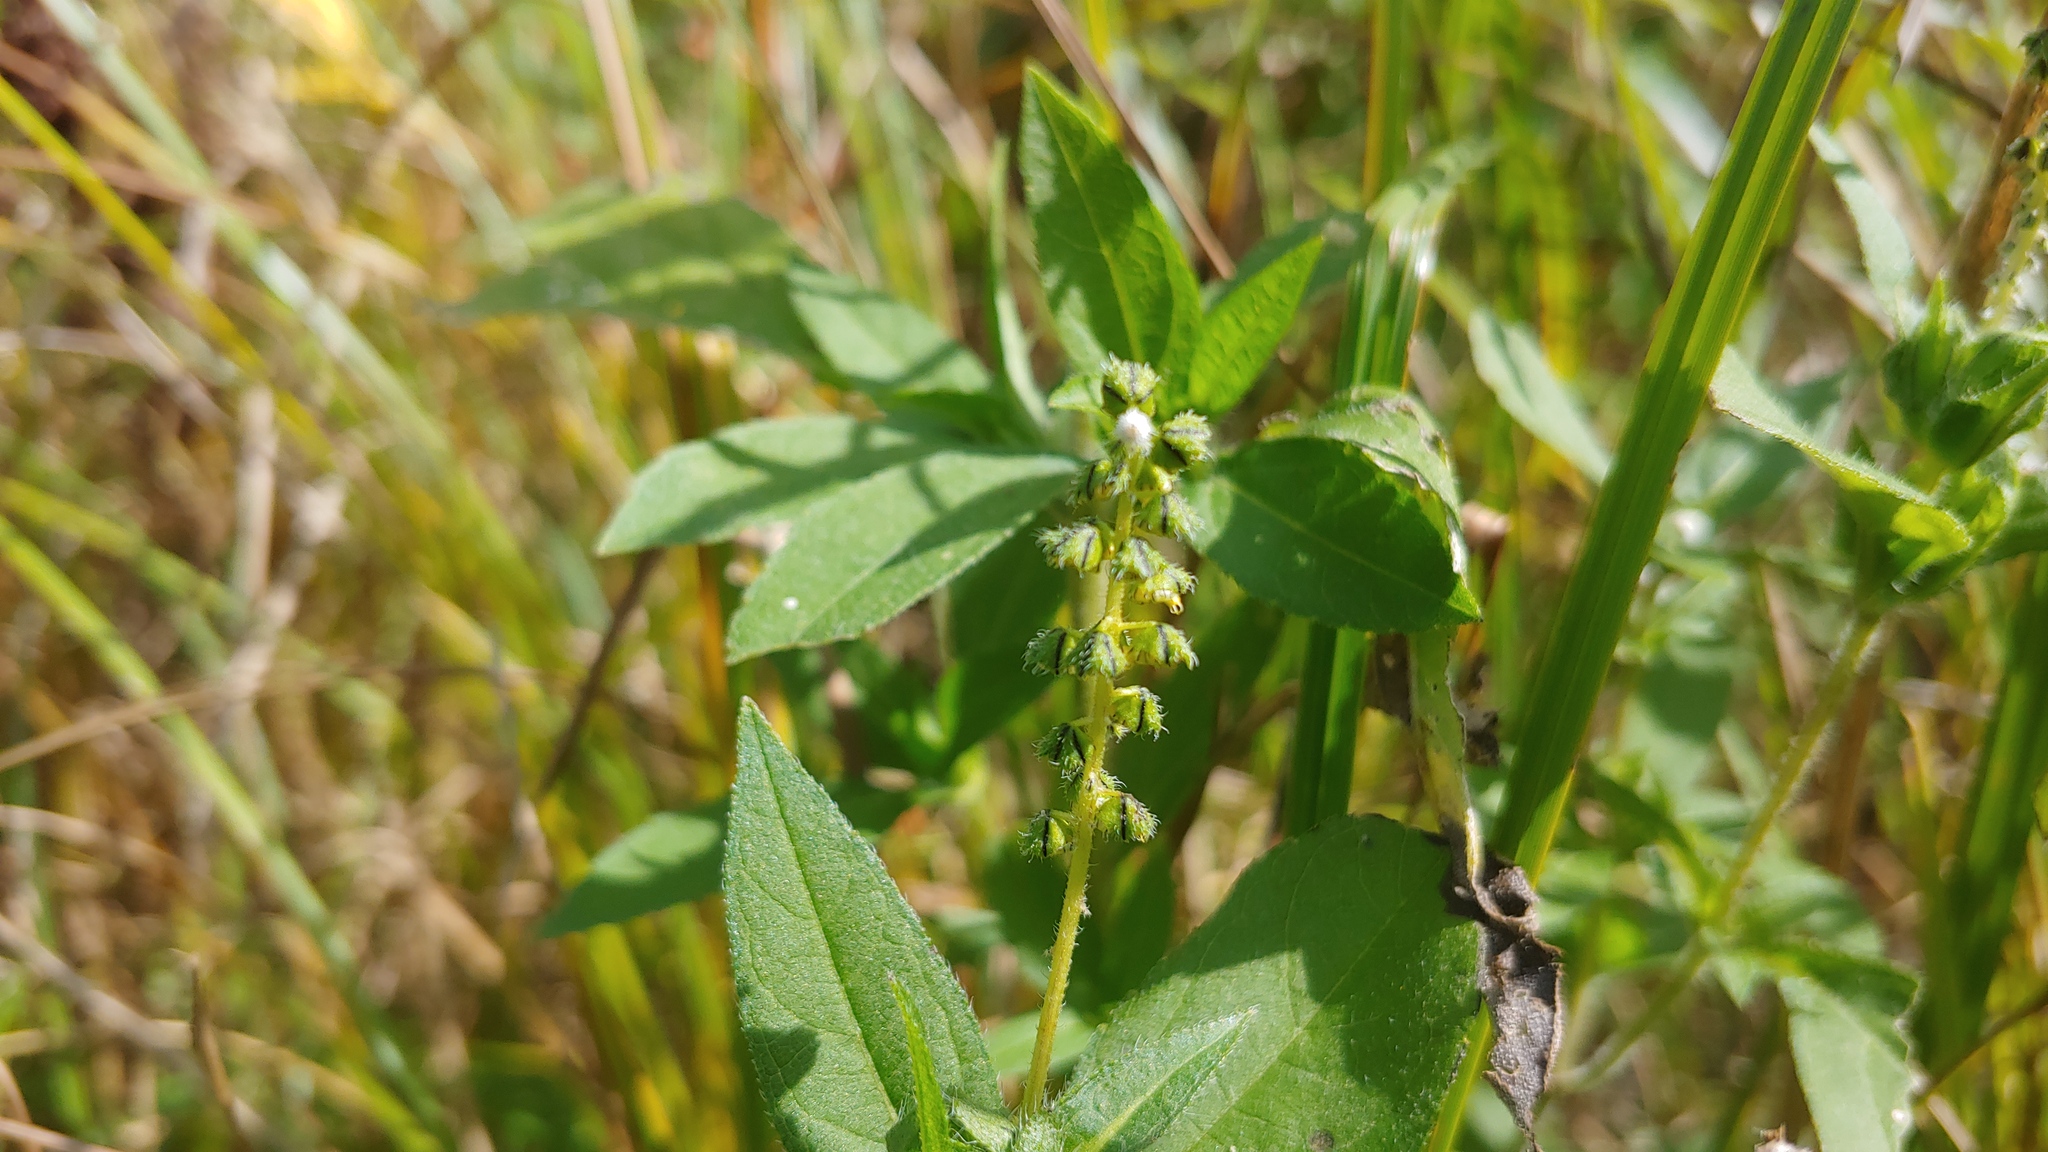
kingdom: Plantae
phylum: Tracheophyta
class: Magnoliopsida
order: Asterales
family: Asteraceae
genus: Ambrosia
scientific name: Ambrosia trifida
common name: Giant ragweed
